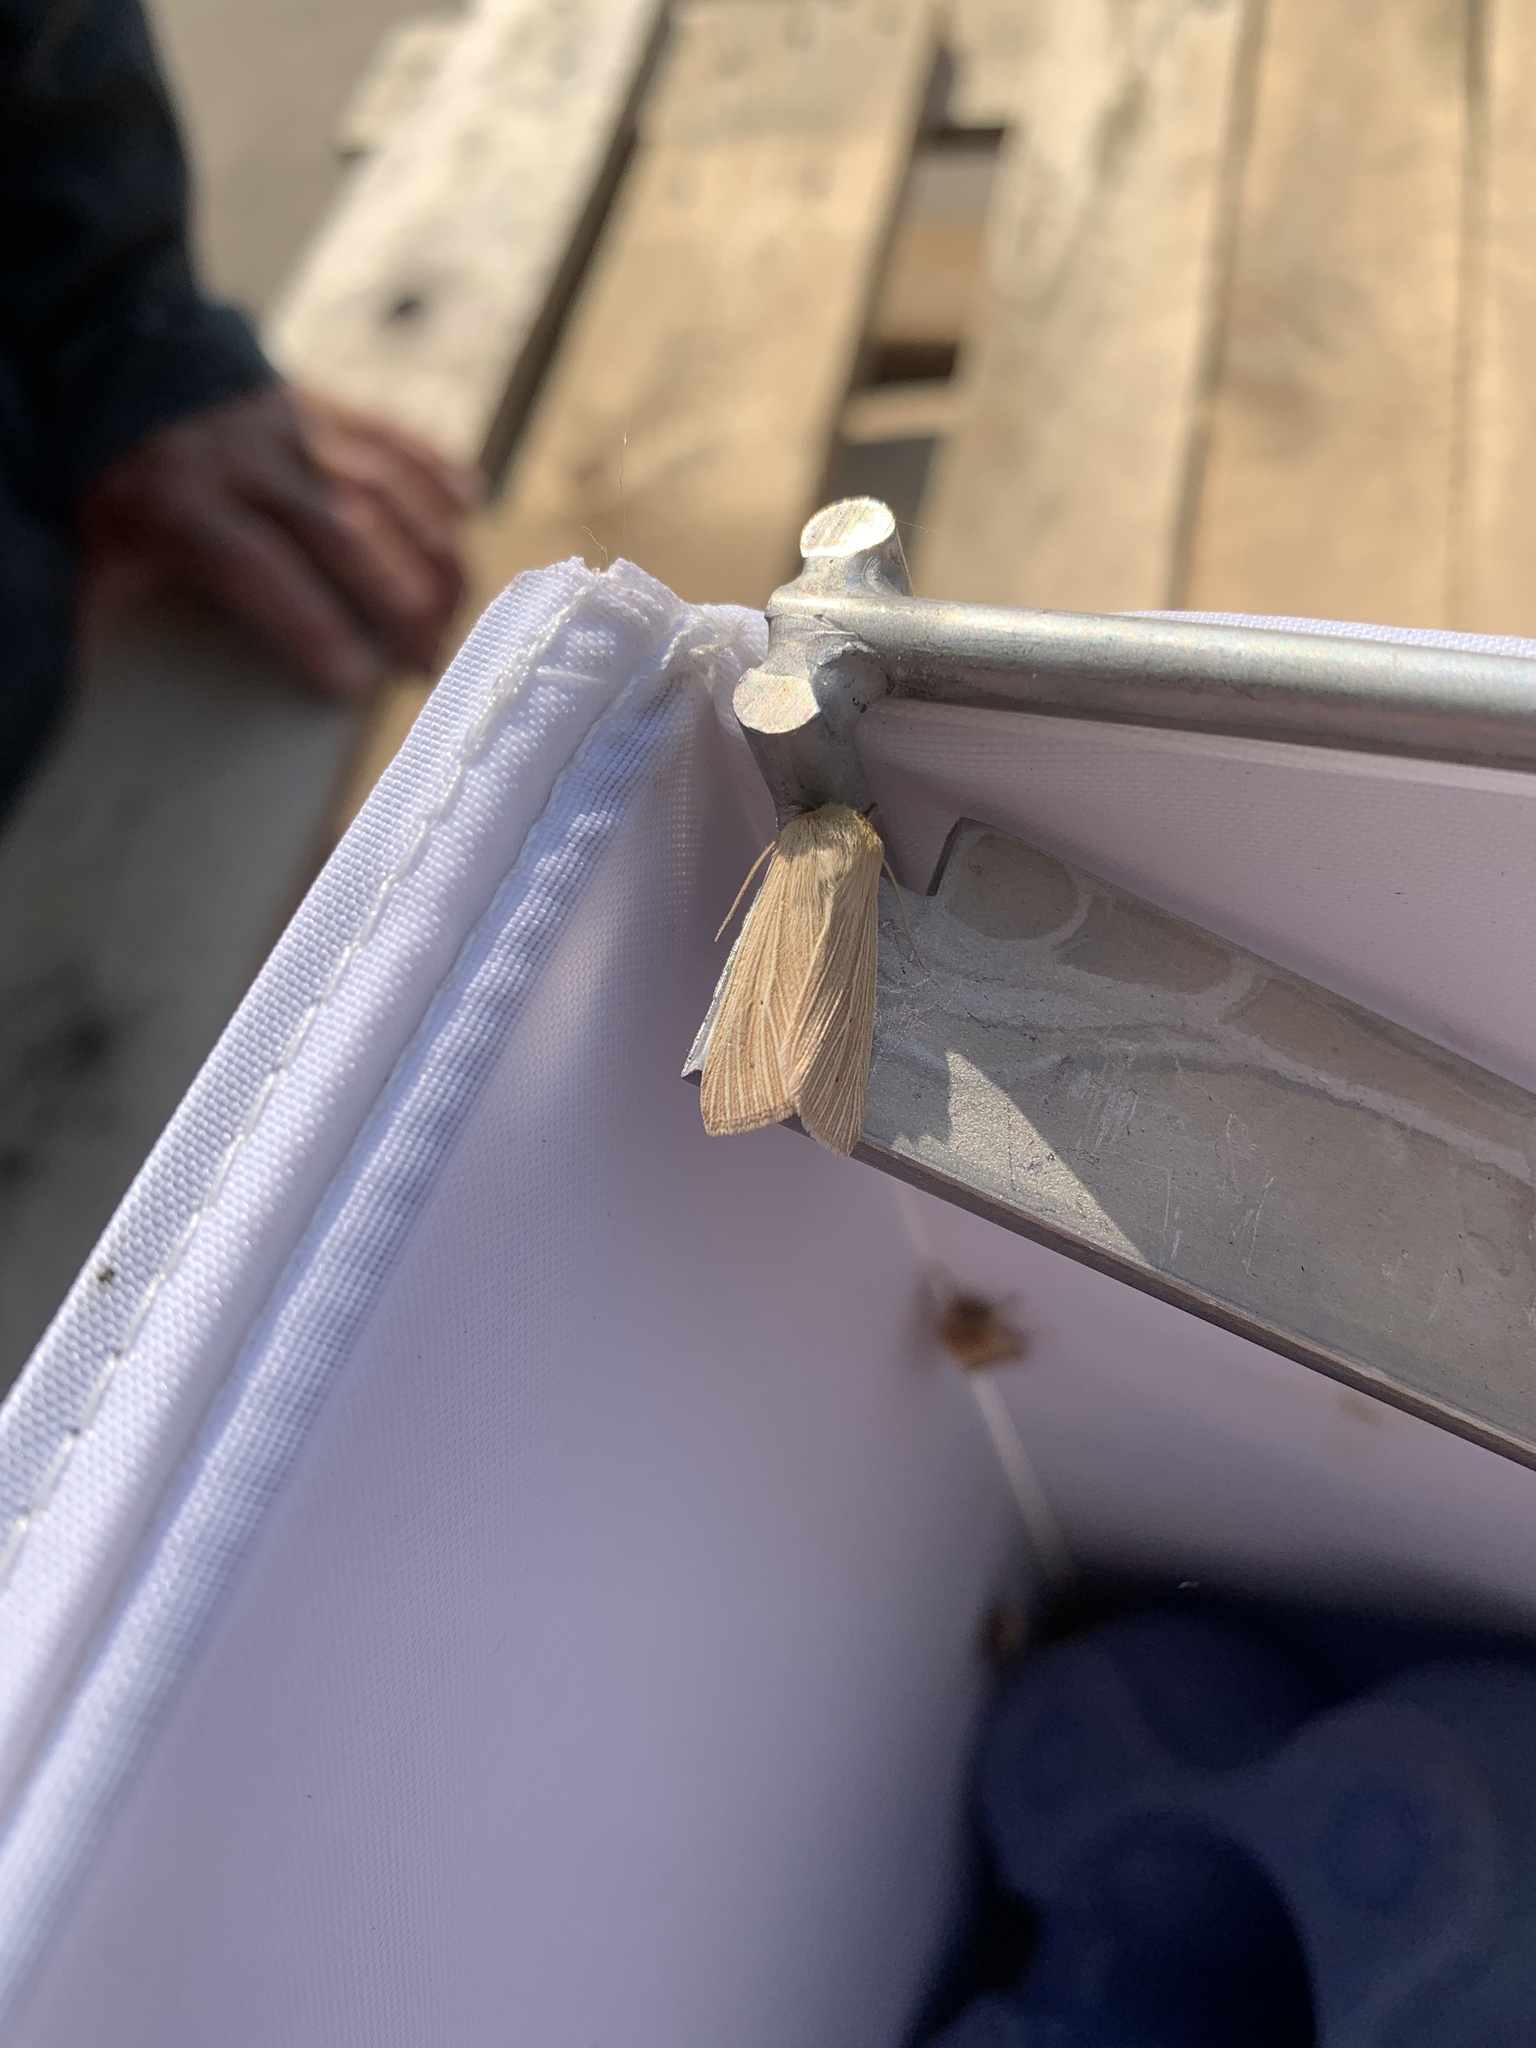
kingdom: Animalia
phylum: Arthropoda
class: Insecta
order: Lepidoptera
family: Noctuidae
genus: Mythimna
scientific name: Mythimna pallens
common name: Common wainscot
